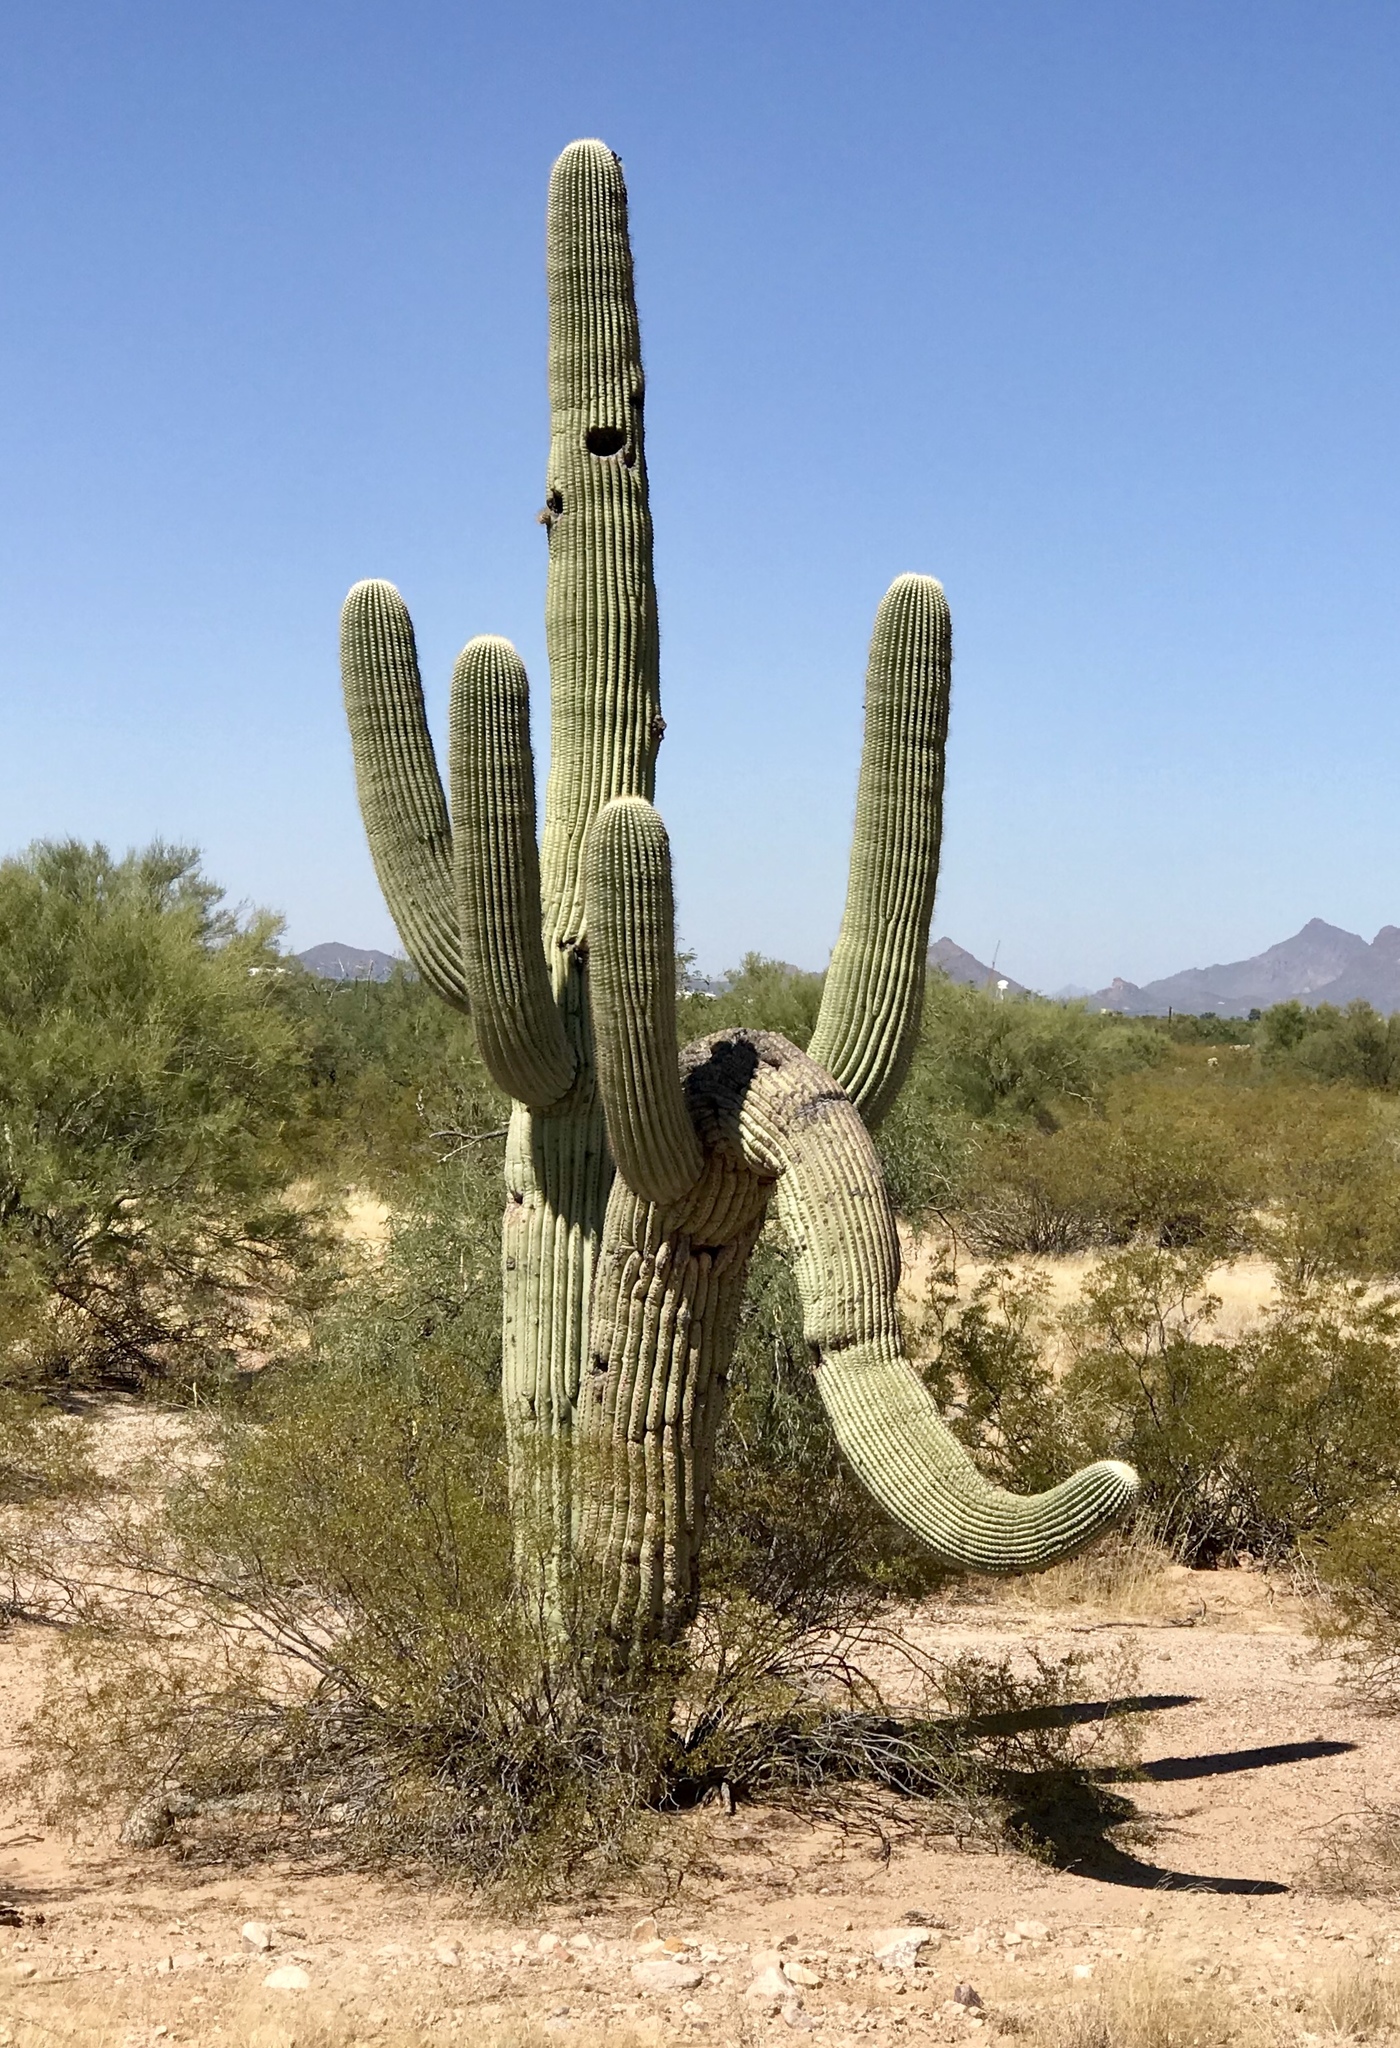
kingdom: Plantae
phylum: Tracheophyta
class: Magnoliopsida
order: Caryophyllales
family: Cactaceae
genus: Carnegiea
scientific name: Carnegiea gigantea
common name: Saguaro
